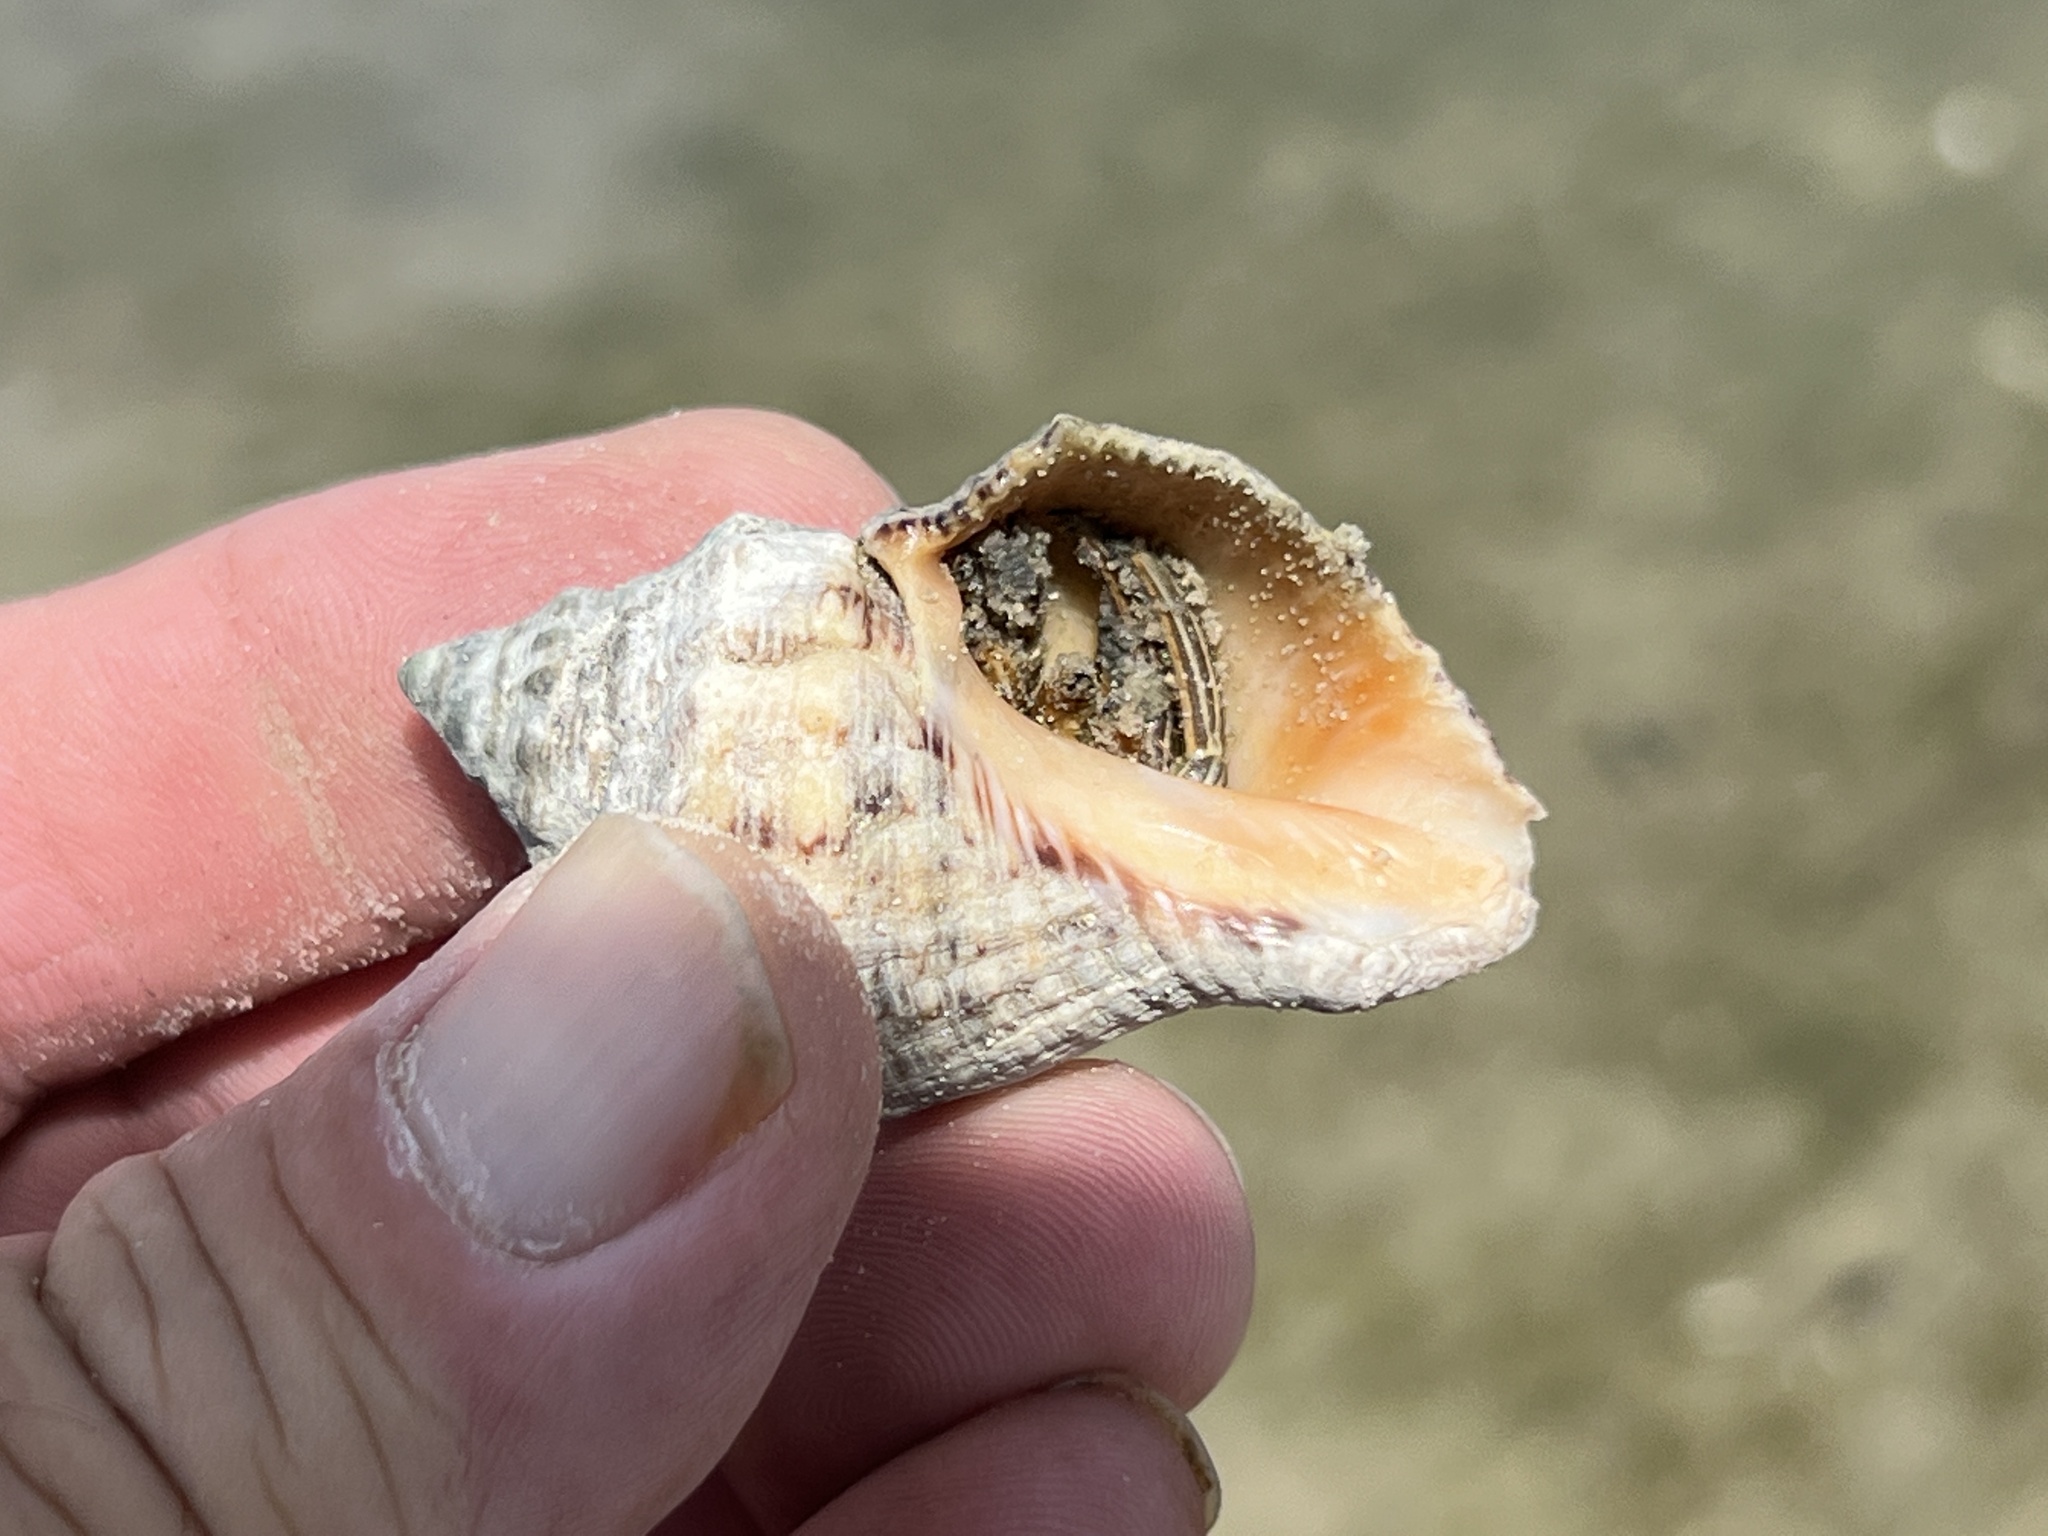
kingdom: Animalia
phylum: Mollusca
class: Gastropoda
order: Neogastropoda
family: Muricidae
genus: Stramonita
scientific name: Stramonita canaliculata
